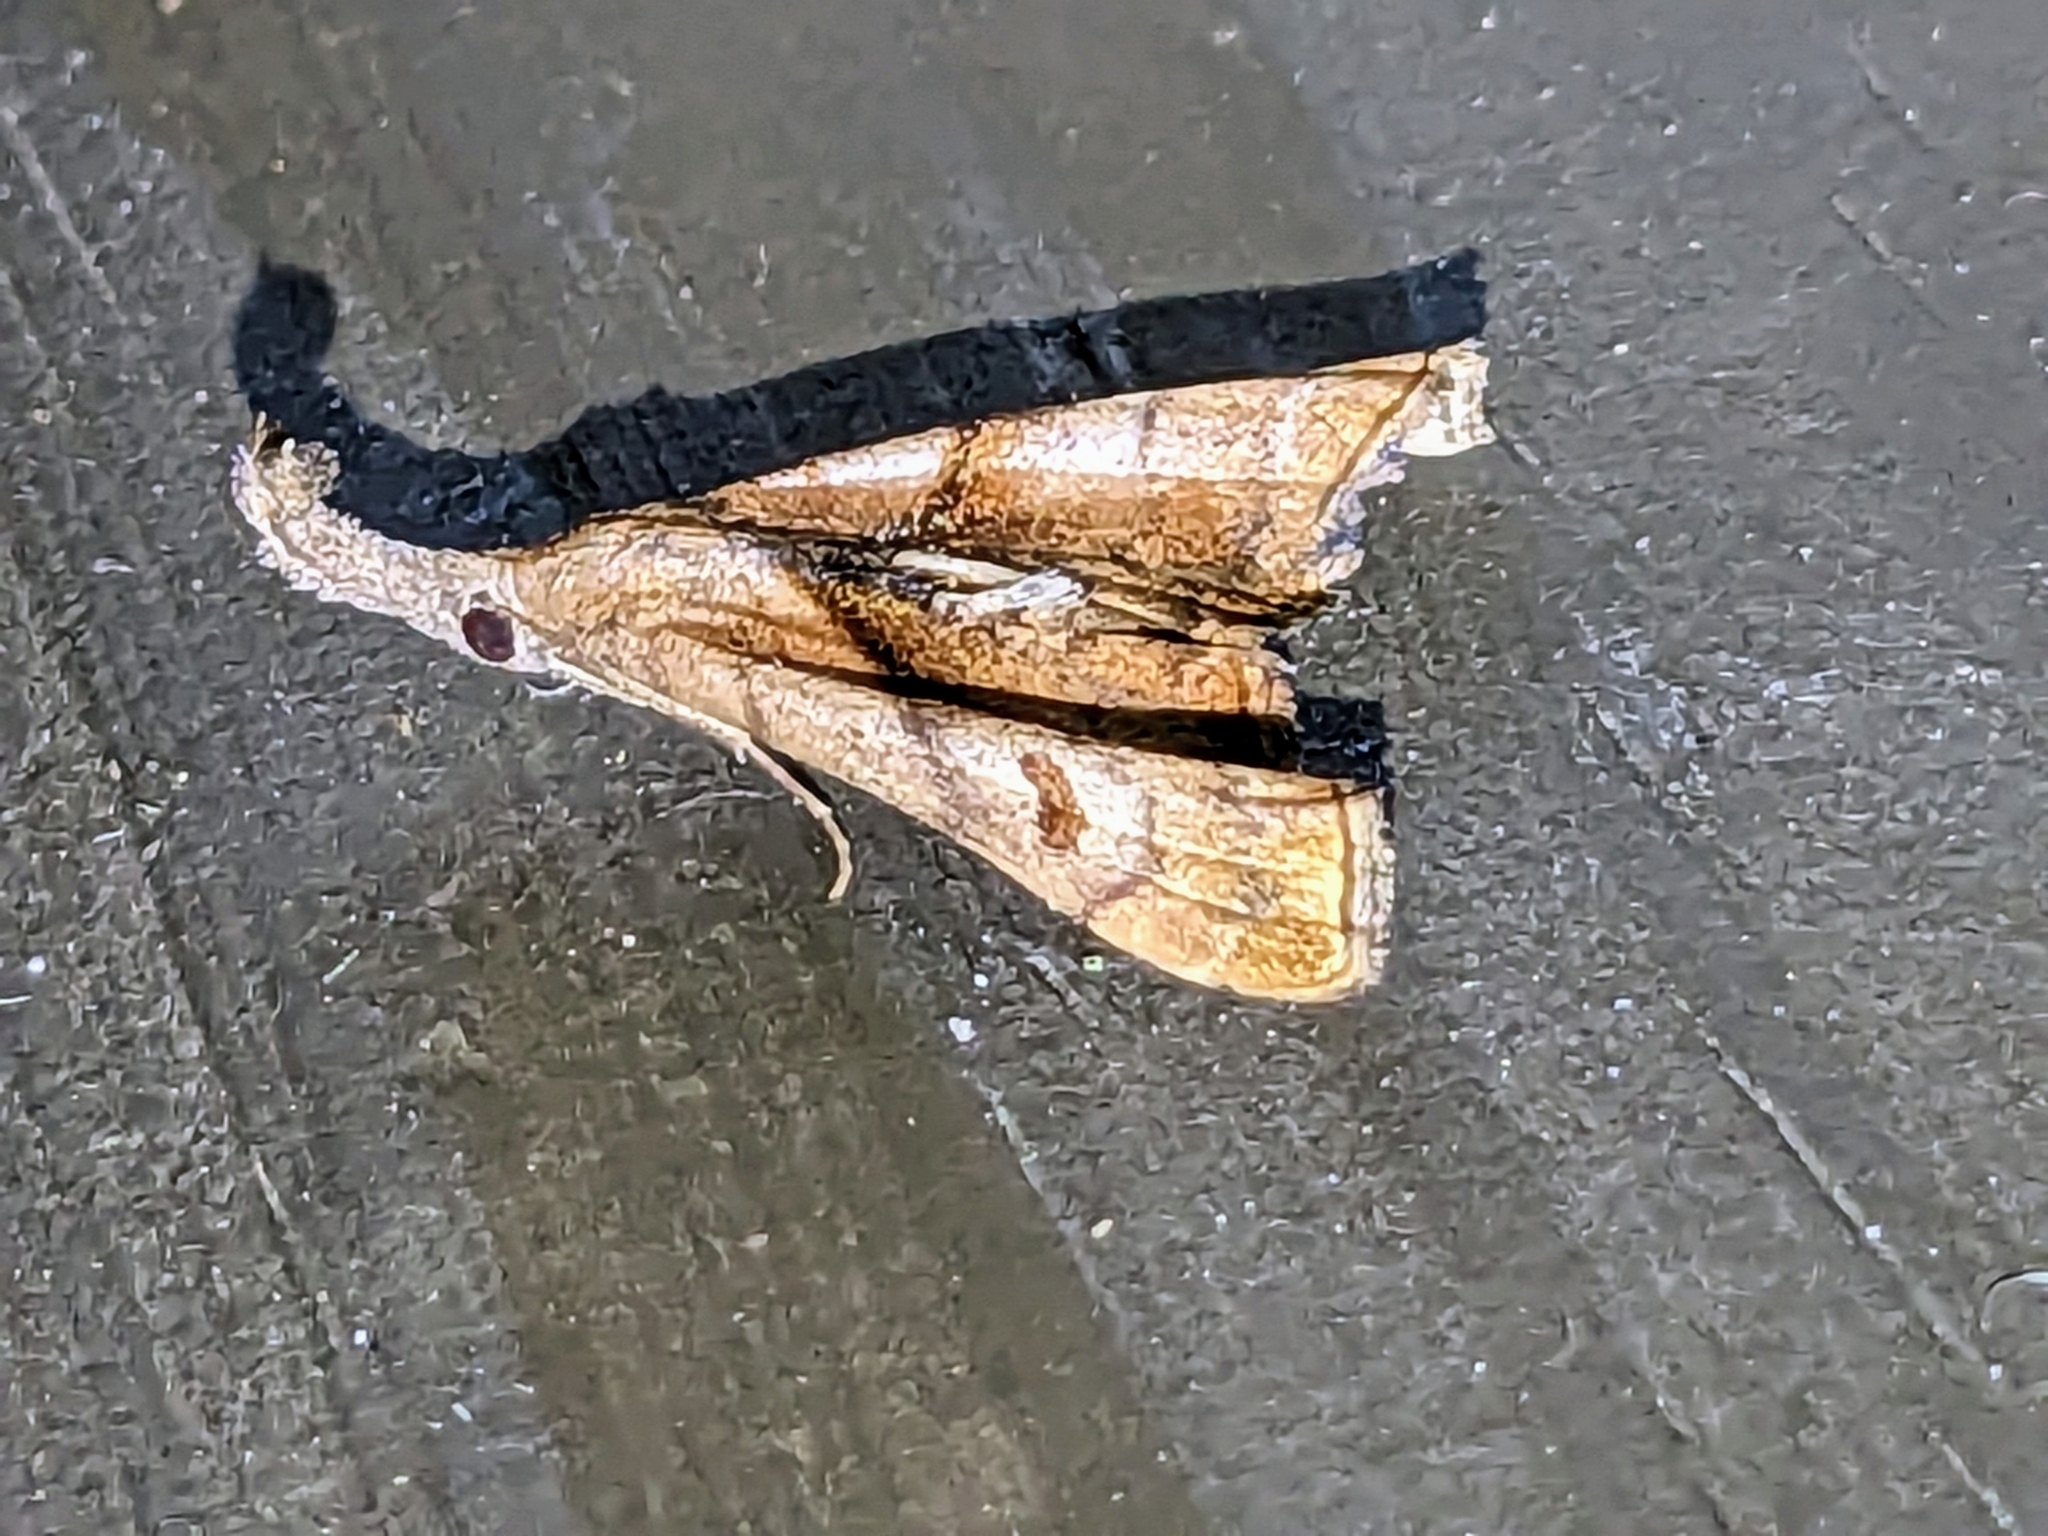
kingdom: Animalia
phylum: Arthropoda
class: Insecta
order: Lepidoptera
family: Erebidae
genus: Palthis
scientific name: Palthis angulalis
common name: Dark-spotted palthis moth
